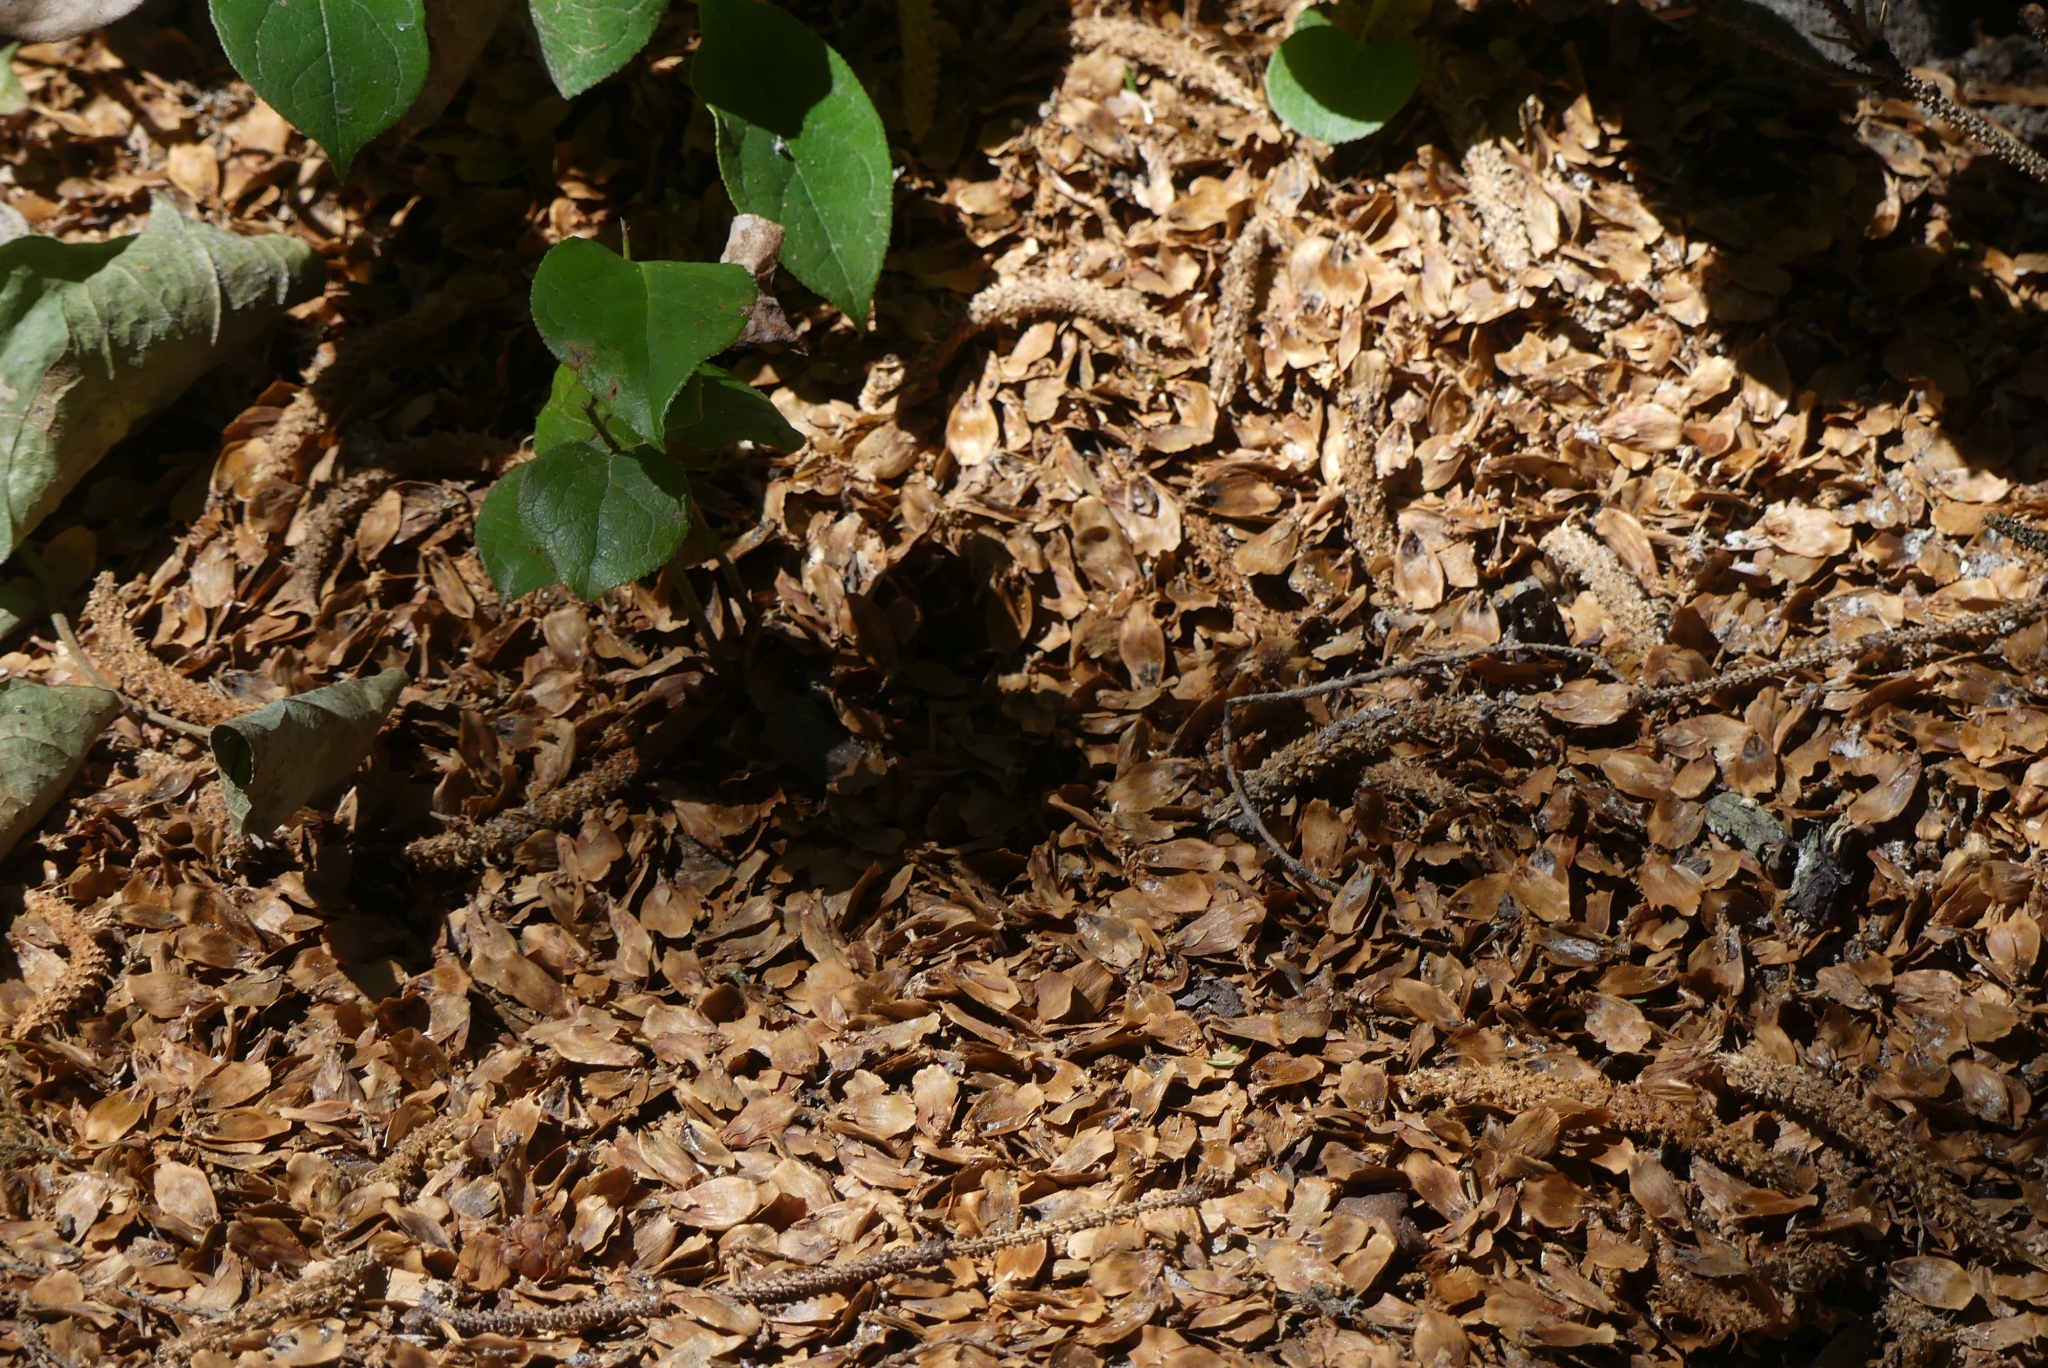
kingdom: Animalia
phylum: Chordata
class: Mammalia
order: Rodentia
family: Sciuridae
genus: Tamiasciurus
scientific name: Tamiasciurus hudsonicus
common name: Red squirrel
